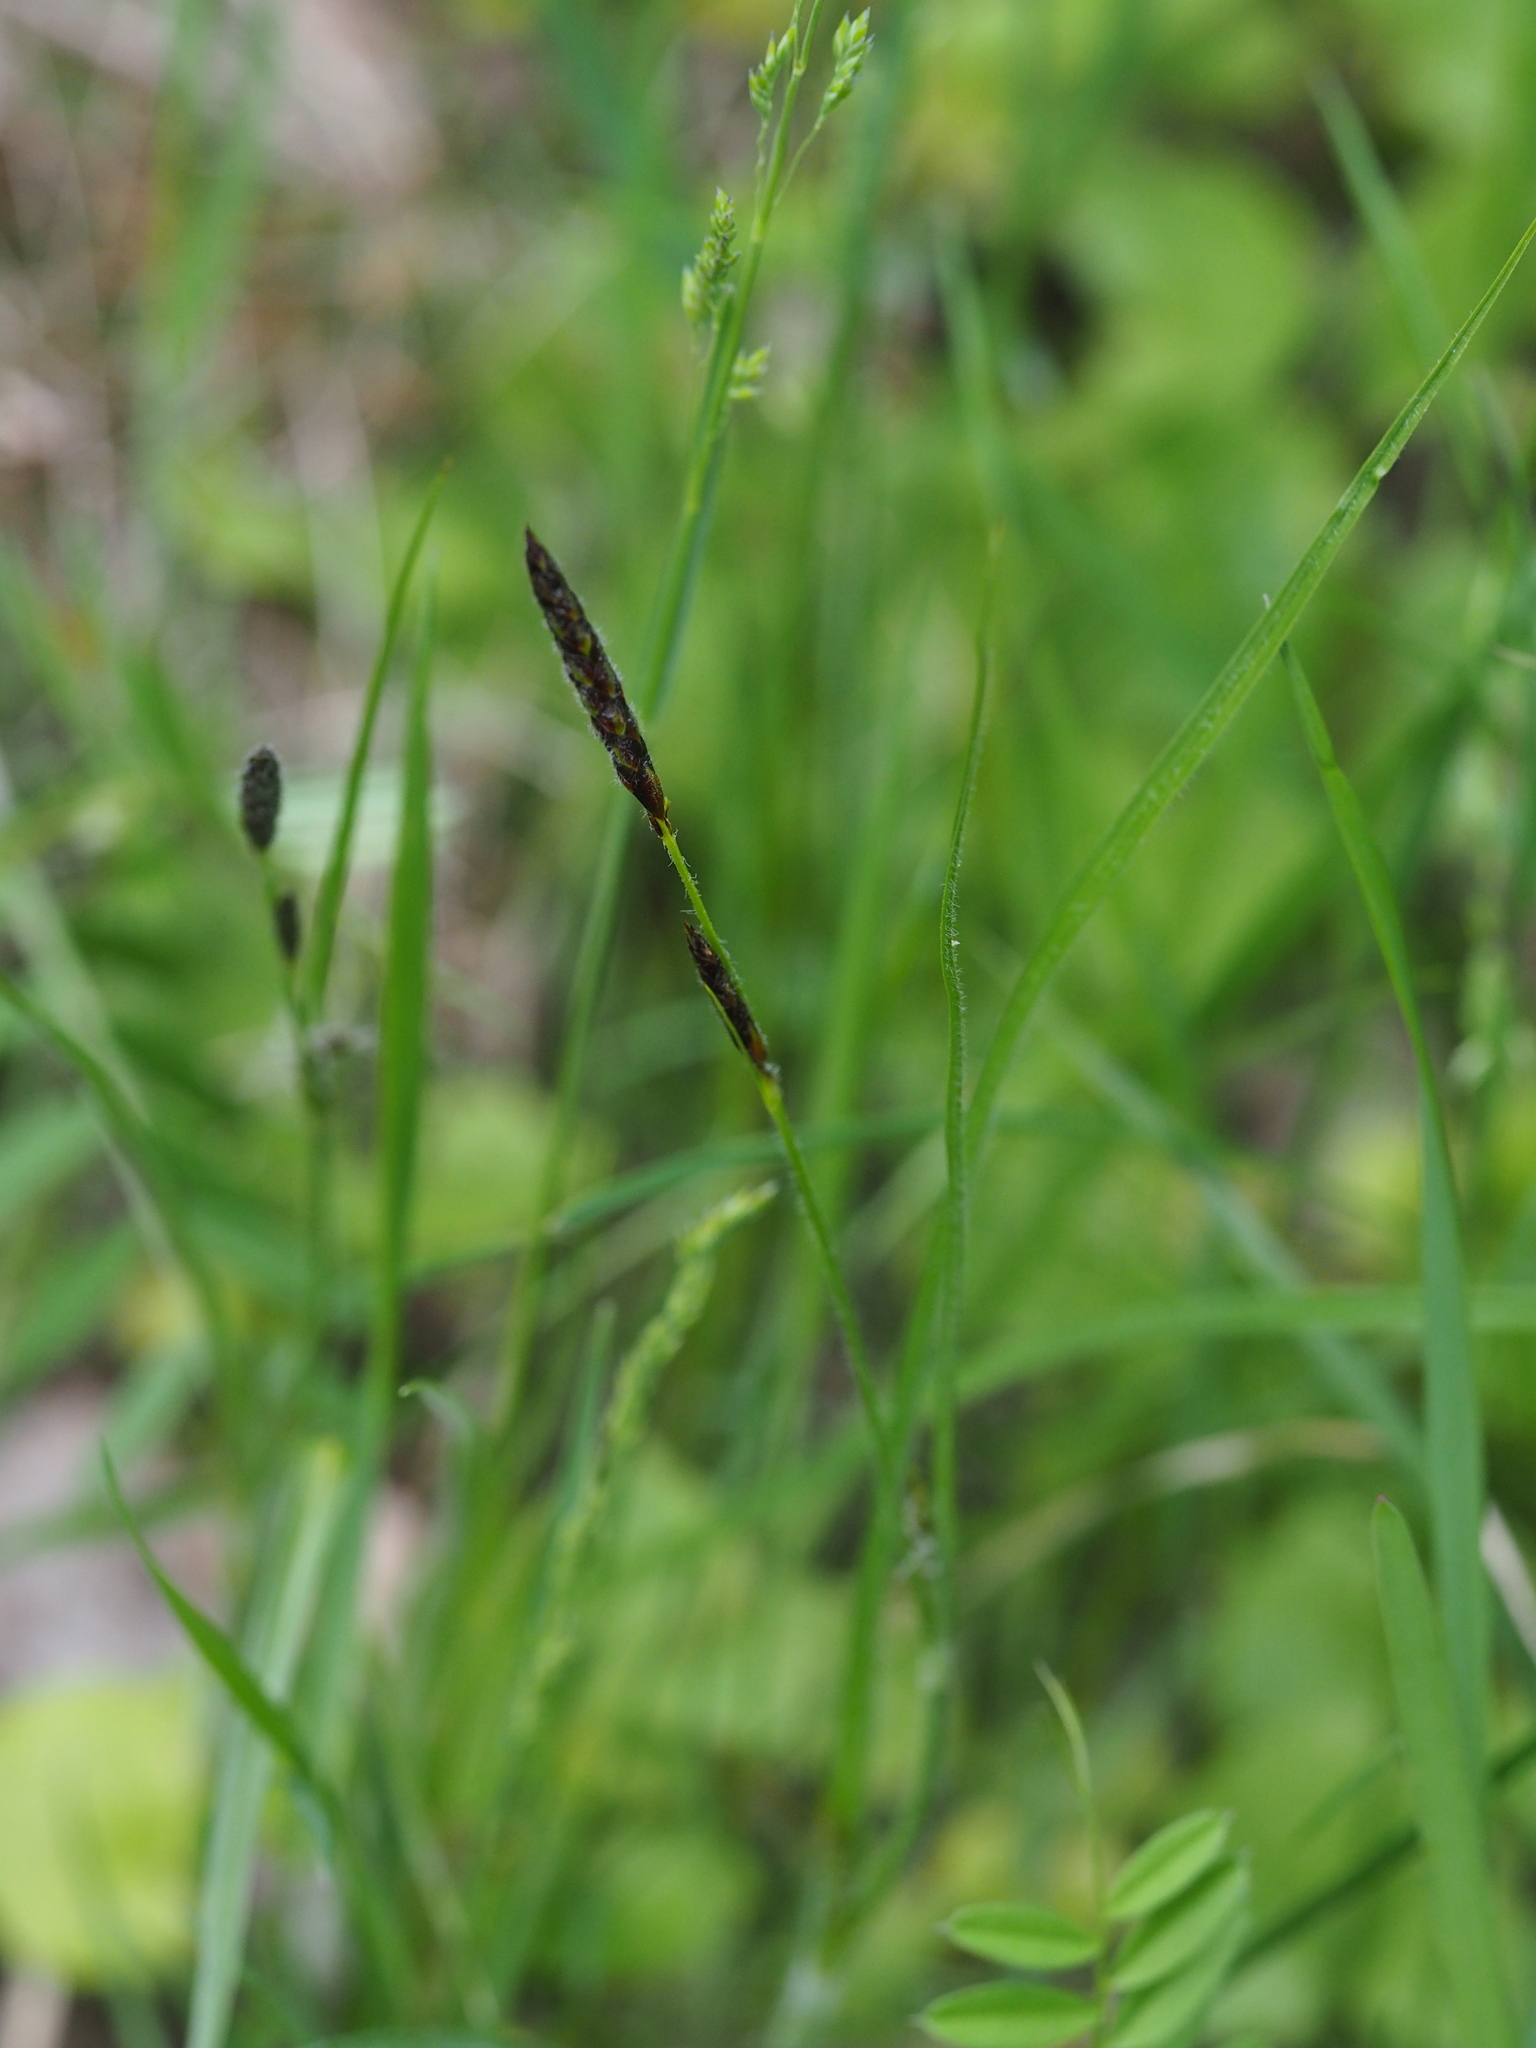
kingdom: Plantae
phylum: Tracheophyta
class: Liliopsida
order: Poales
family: Cyperaceae
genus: Carex
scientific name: Carex hirta
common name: Hairy sedge
